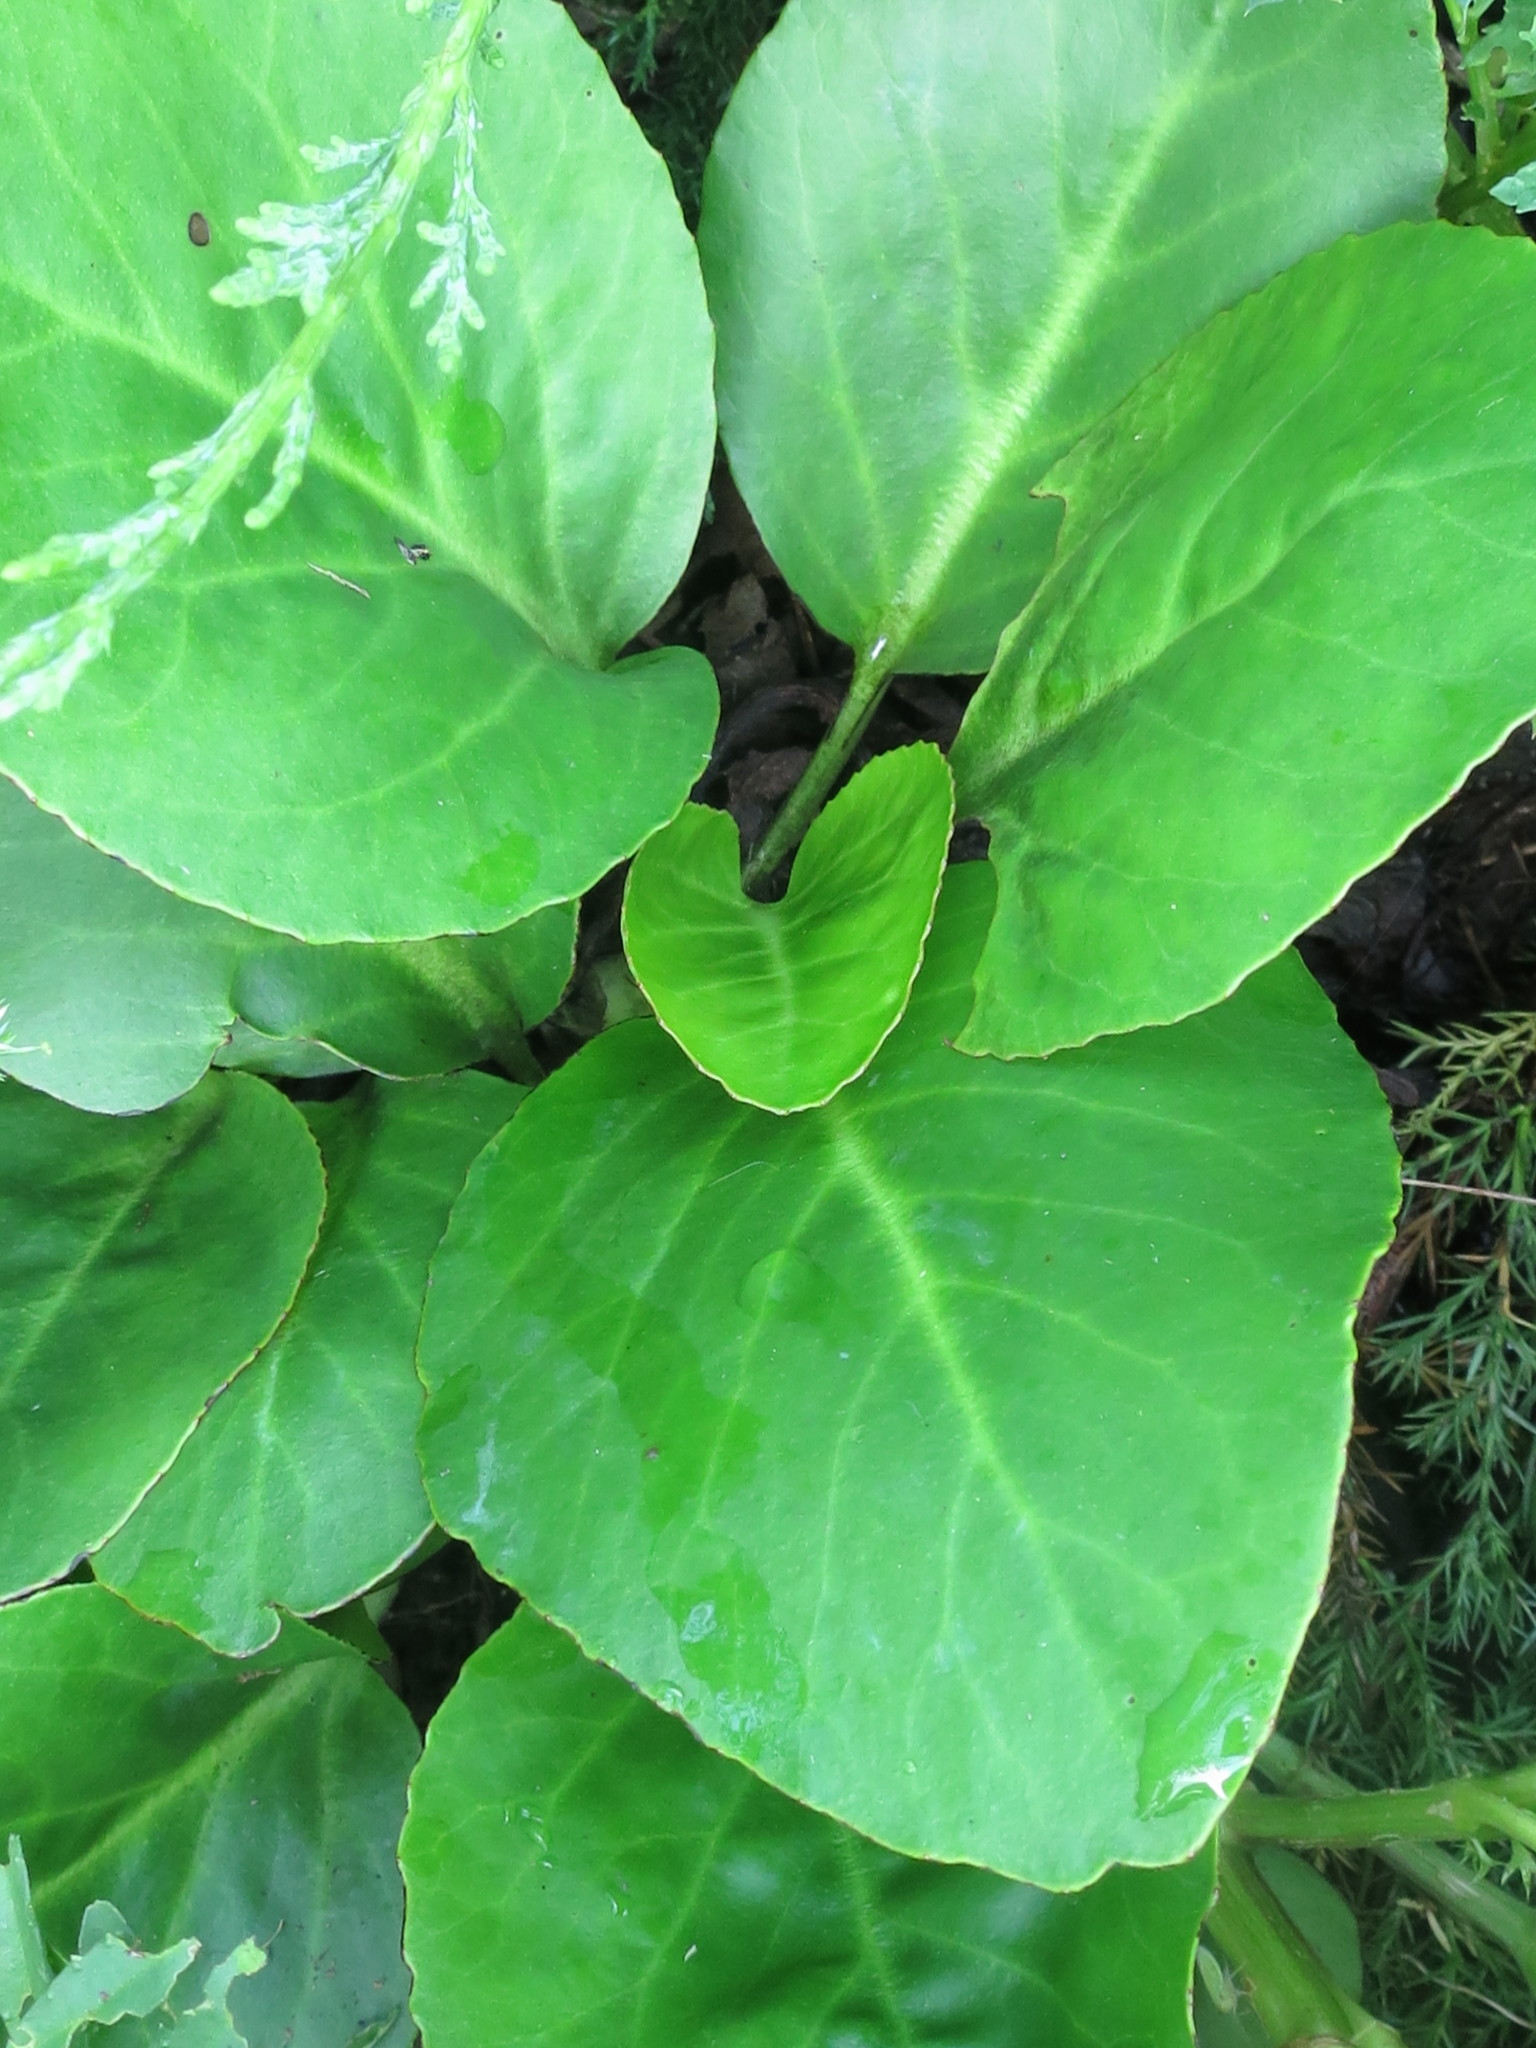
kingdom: Plantae
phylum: Tracheophyta
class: Magnoliopsida
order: Saxifragales
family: Saxifragaceae
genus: Bergenia
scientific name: Bergenia crassifolia
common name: Elephant-ears
